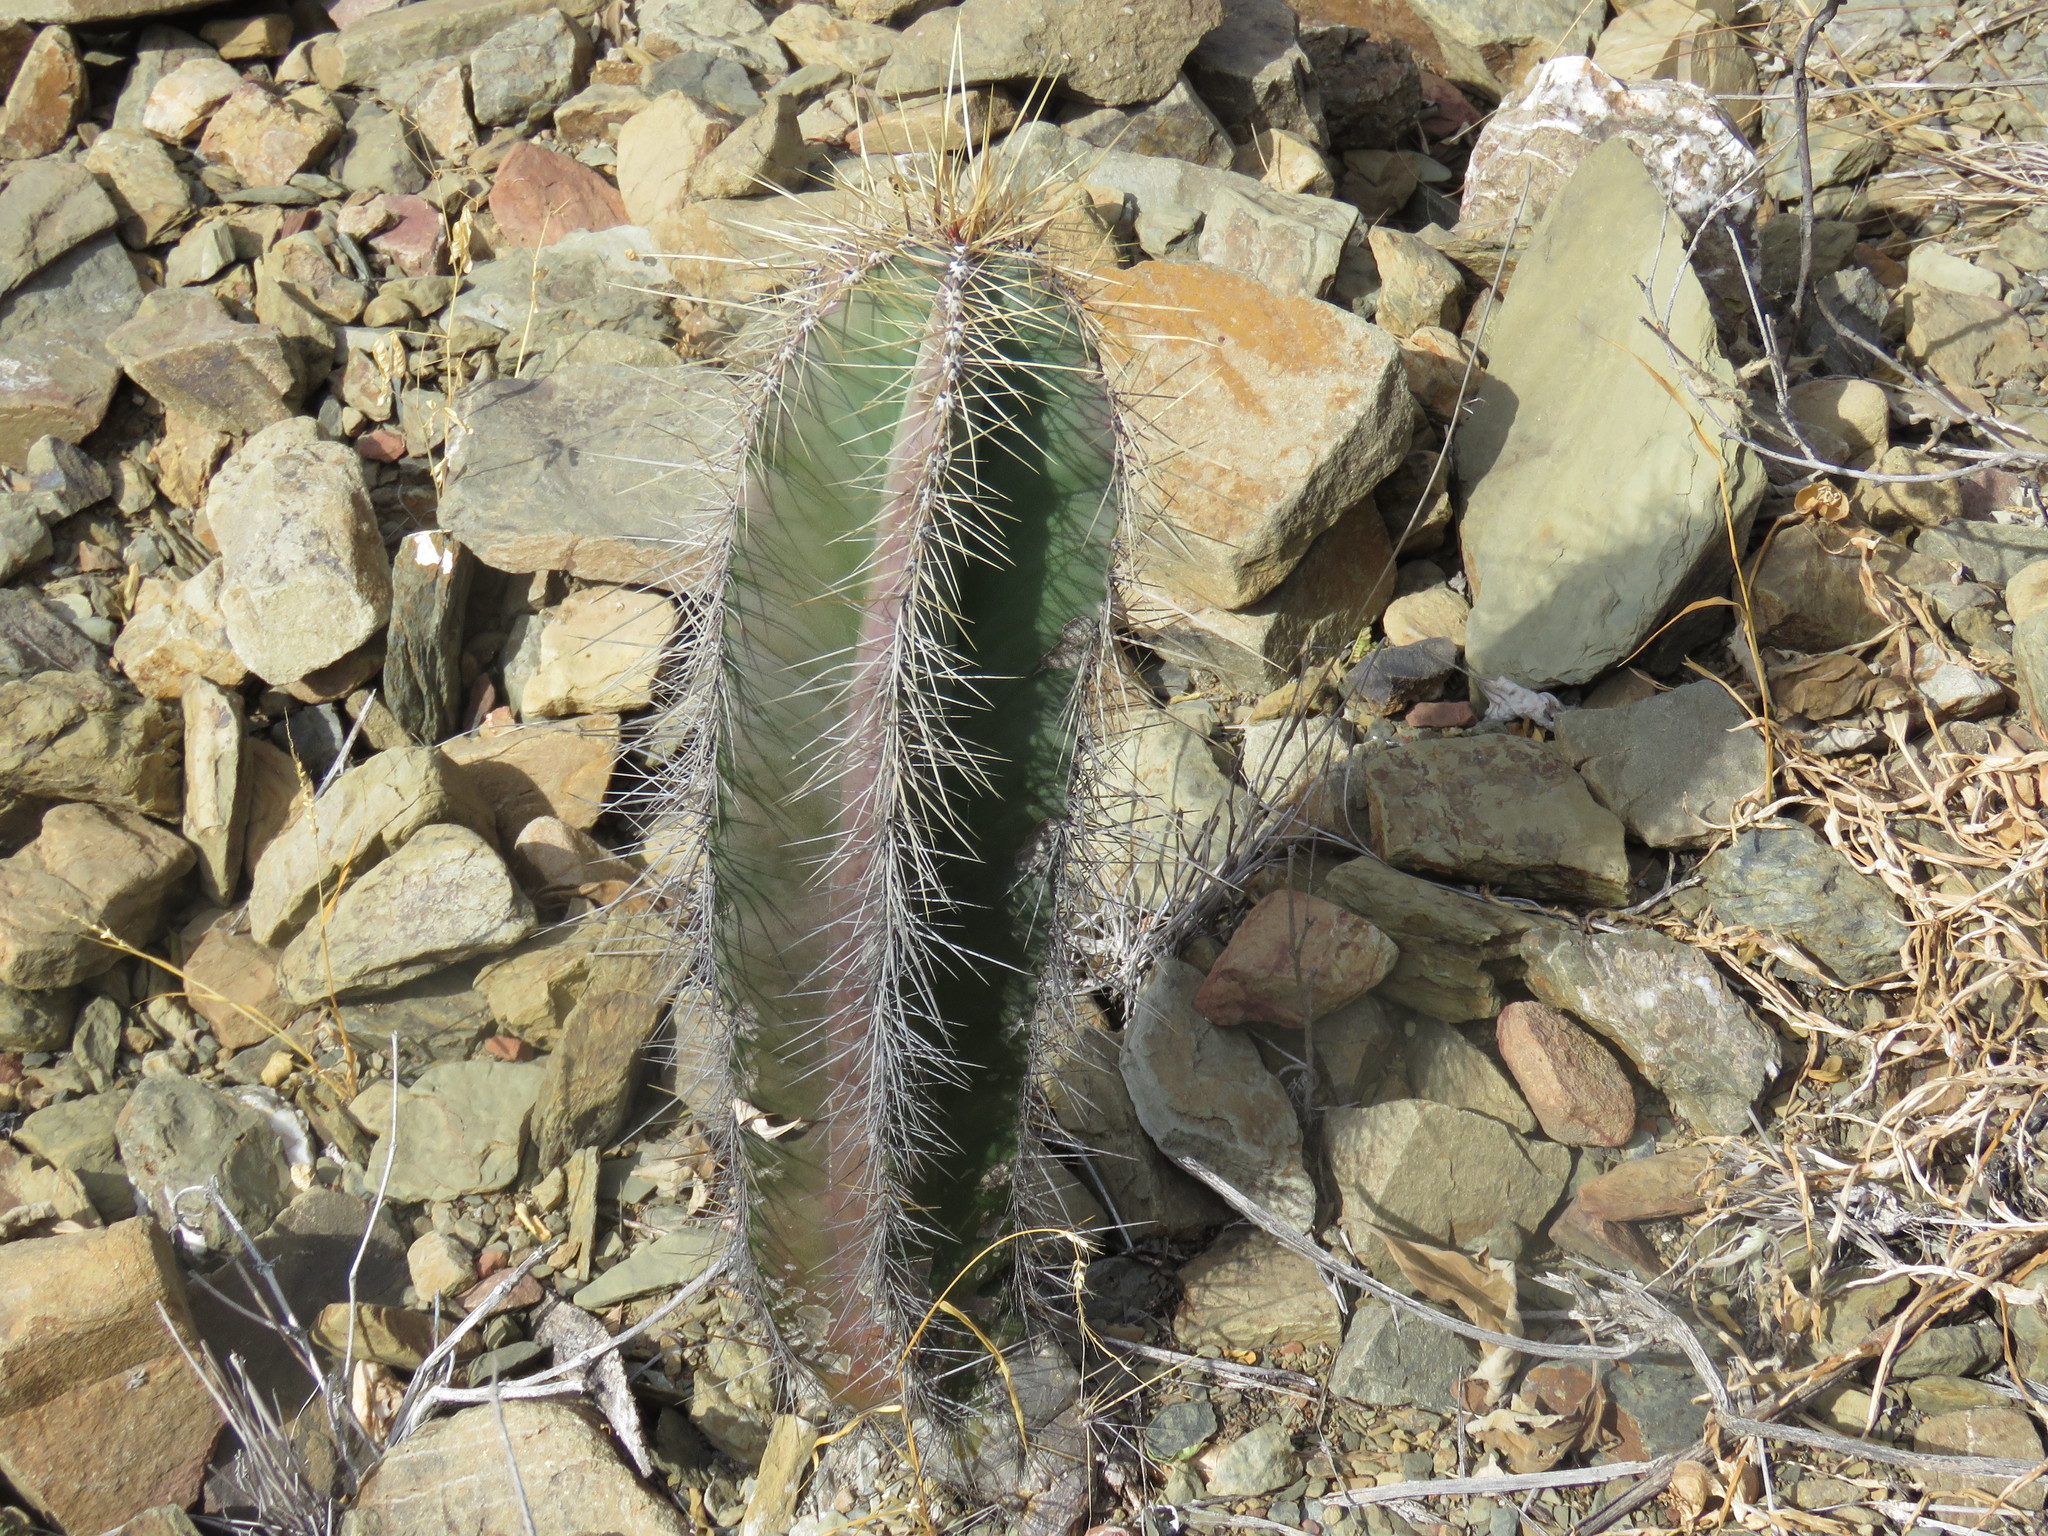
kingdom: Plantae
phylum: Tracheophyta
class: Magnoliopsida
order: Caryophyllales
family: Cactaceae
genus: Stenocereus
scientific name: Stenocereus dumortieri
